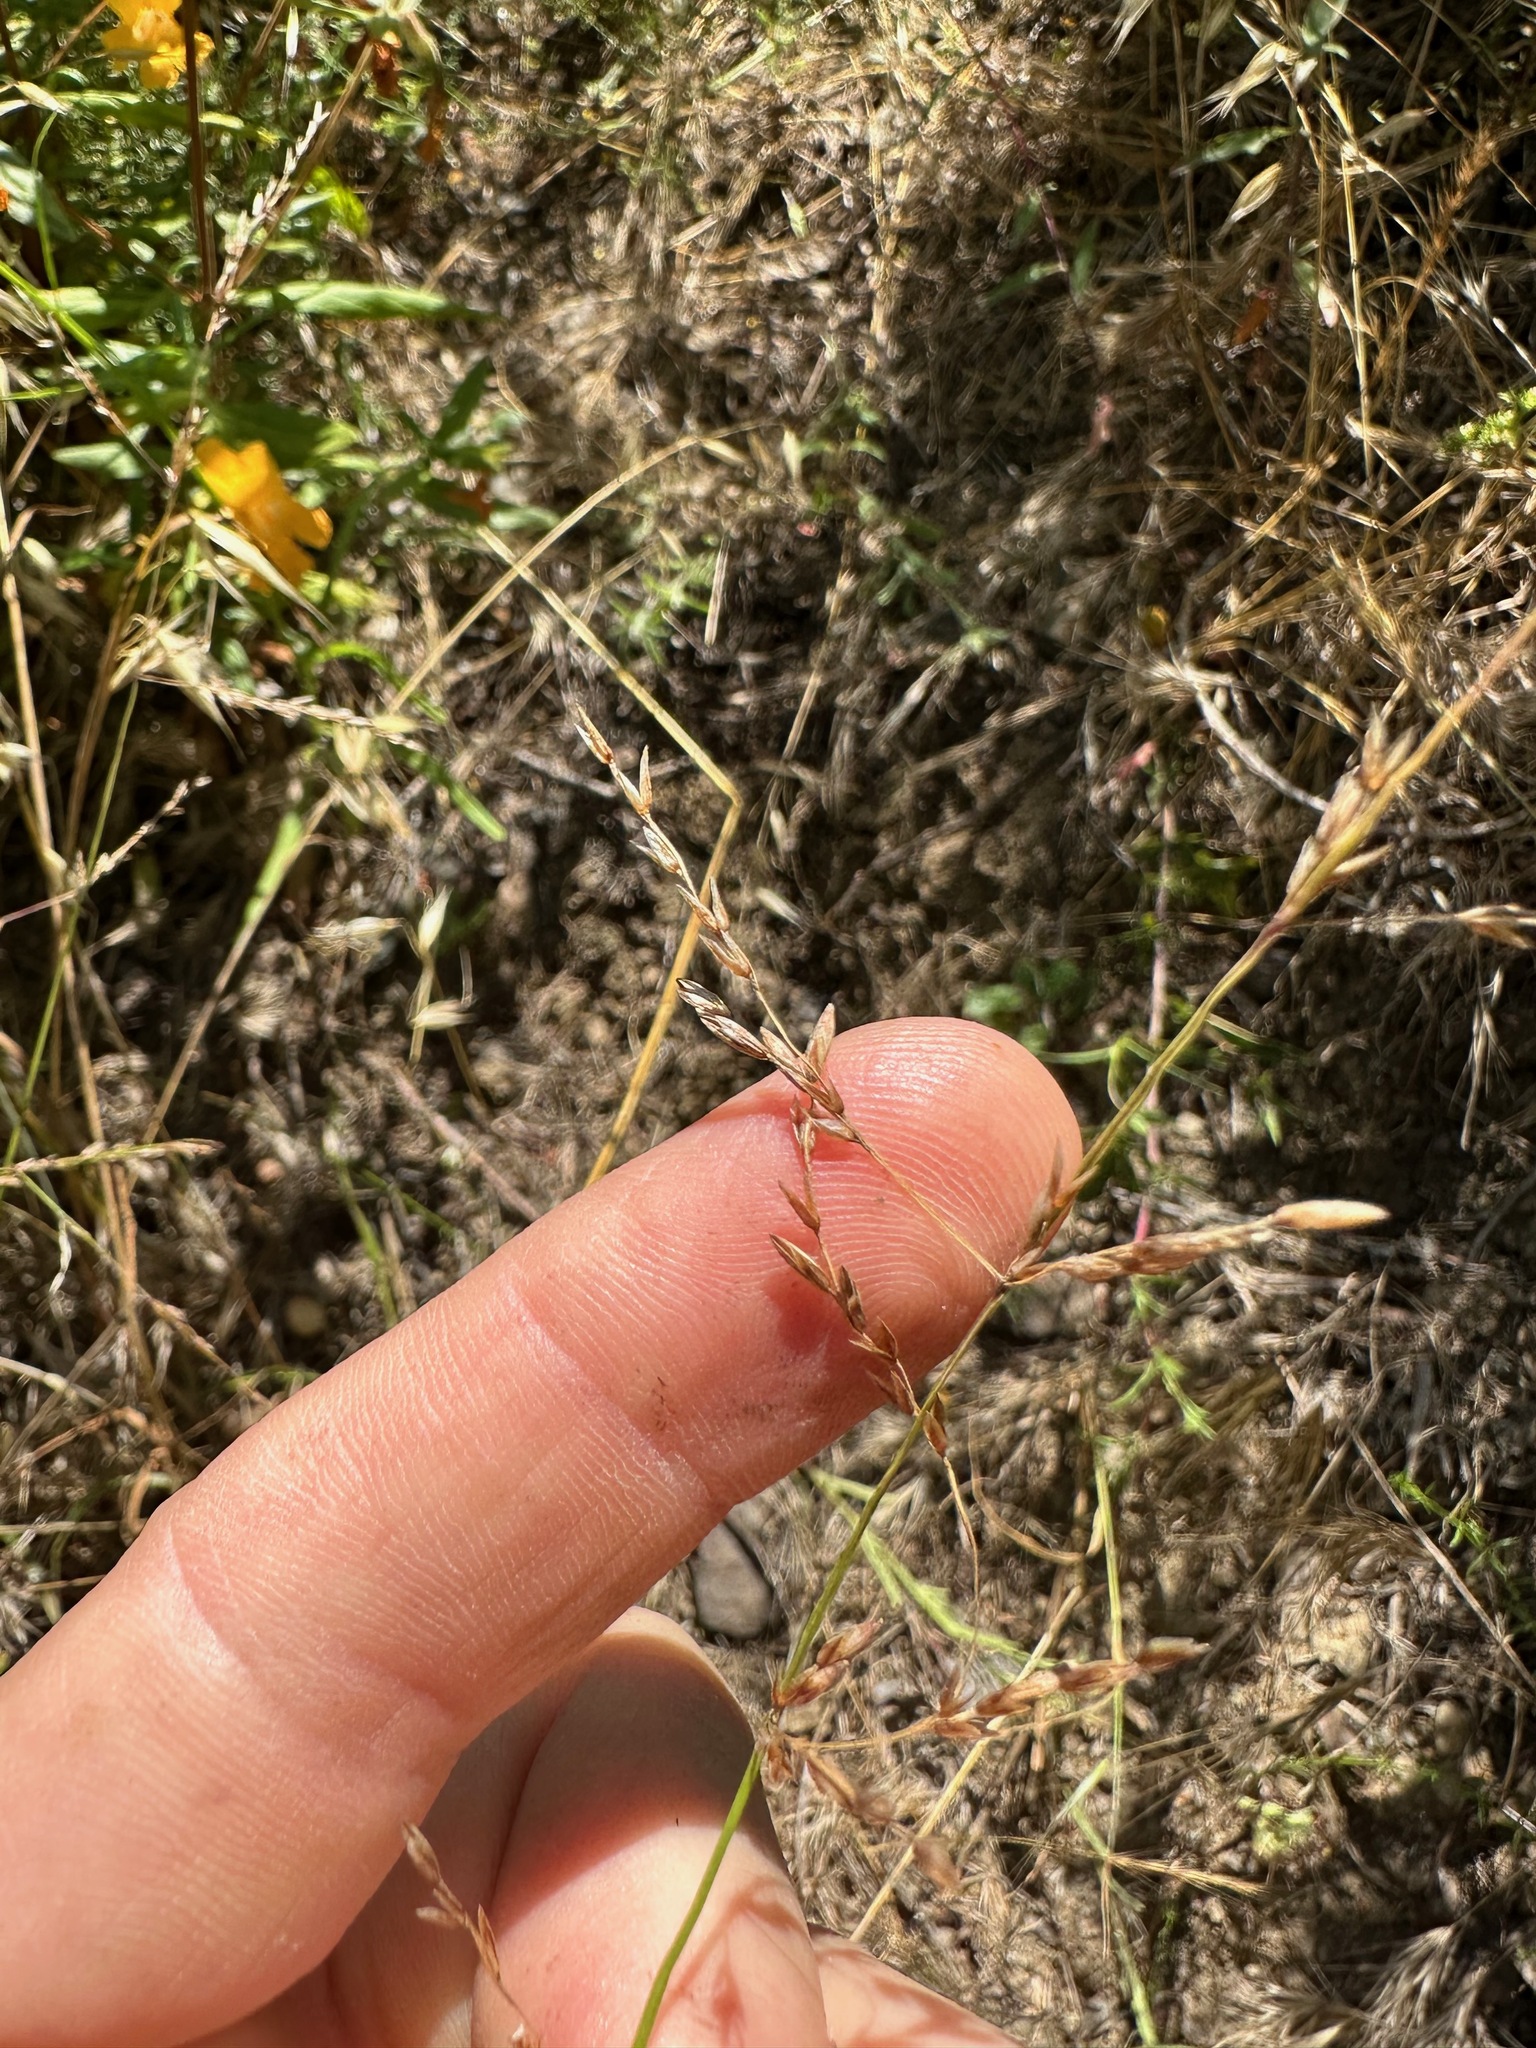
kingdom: Plantae
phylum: Tracheophyta
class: Liliopsida
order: Poales
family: Poaceae
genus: Melica
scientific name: Melica imperfecta
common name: California melic
